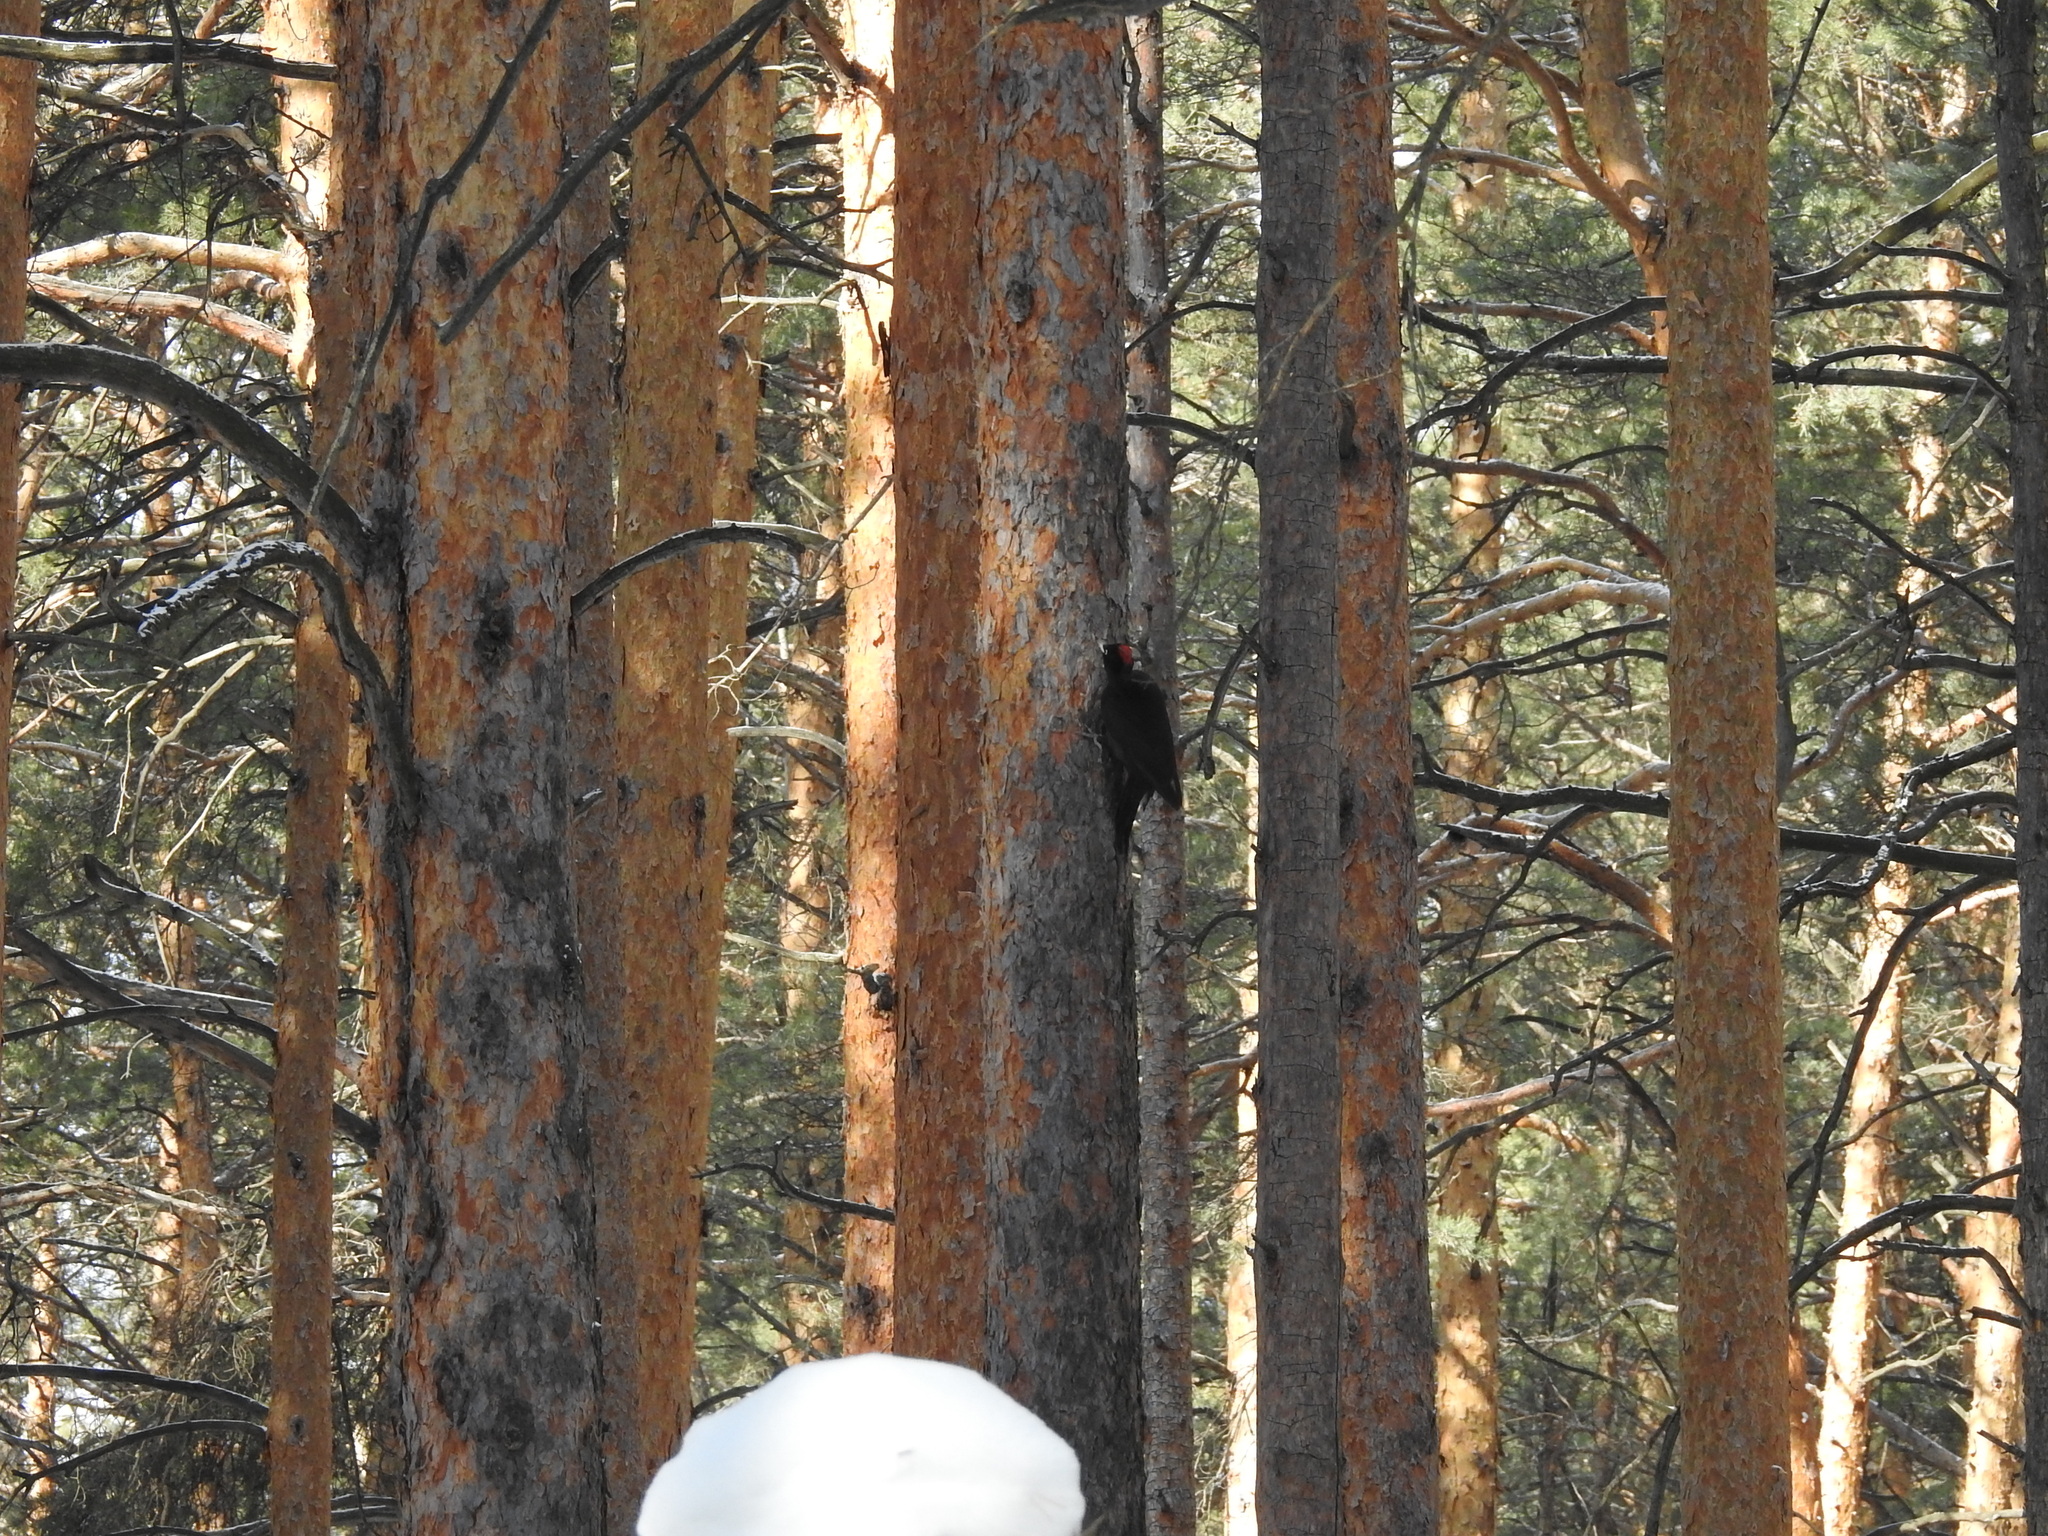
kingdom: Animalia
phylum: Chordata
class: Aves
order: Piciformes
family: Picidae
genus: Dryocopus
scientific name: Dryocopus martius
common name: Black woodpecker
